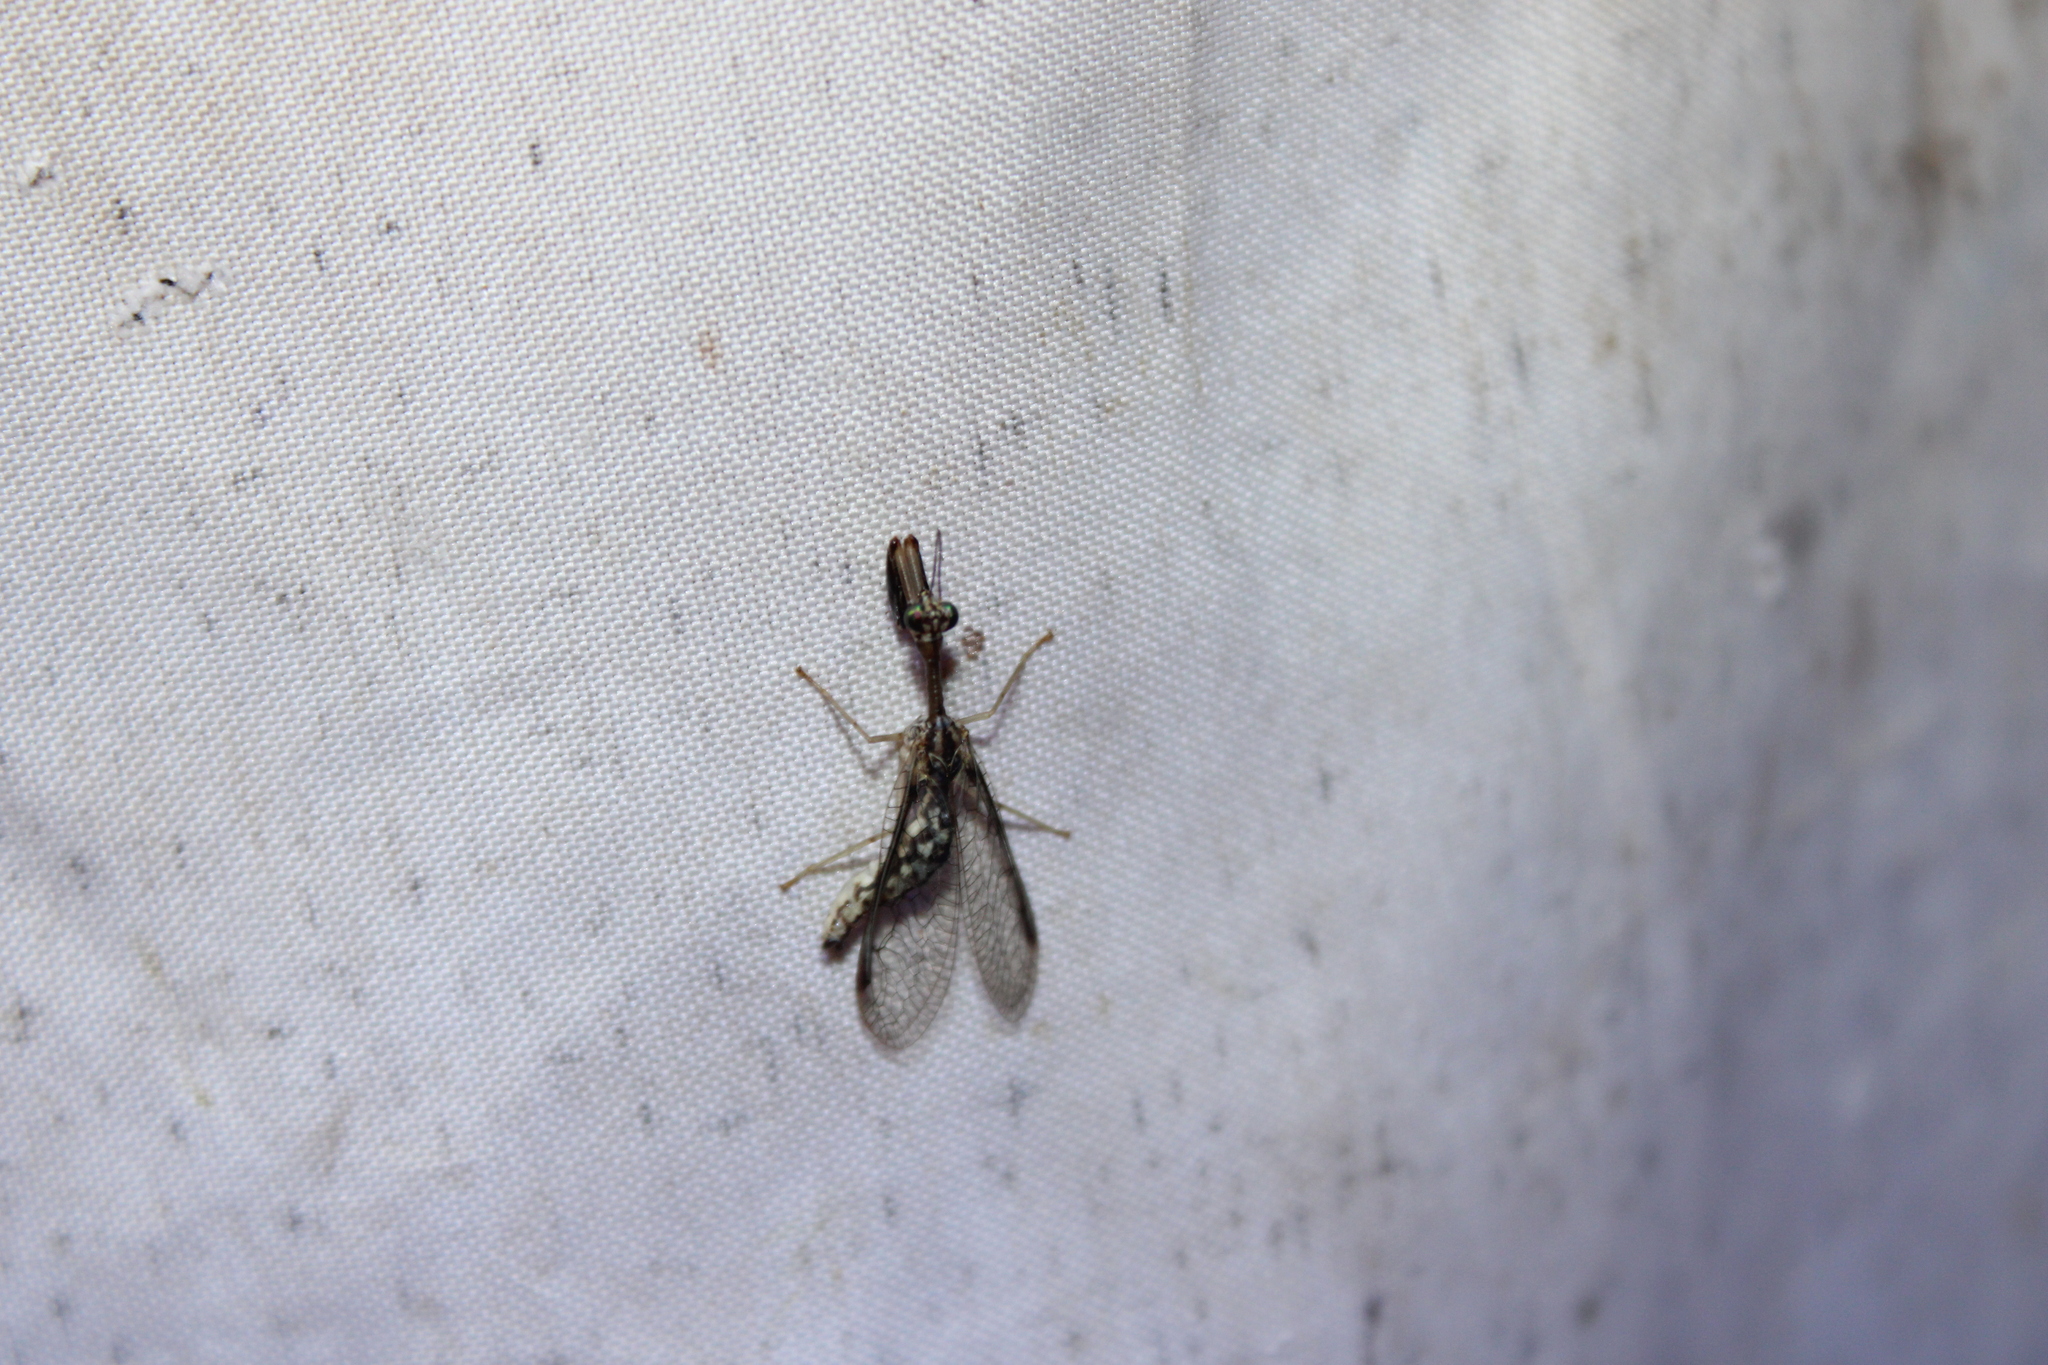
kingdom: Animalia
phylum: Arthropoda
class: Insecta
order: Neuroptera
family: Mantispidae
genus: Dicromantispa
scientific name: Dicromantispa sayi
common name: Say's mantidfly
